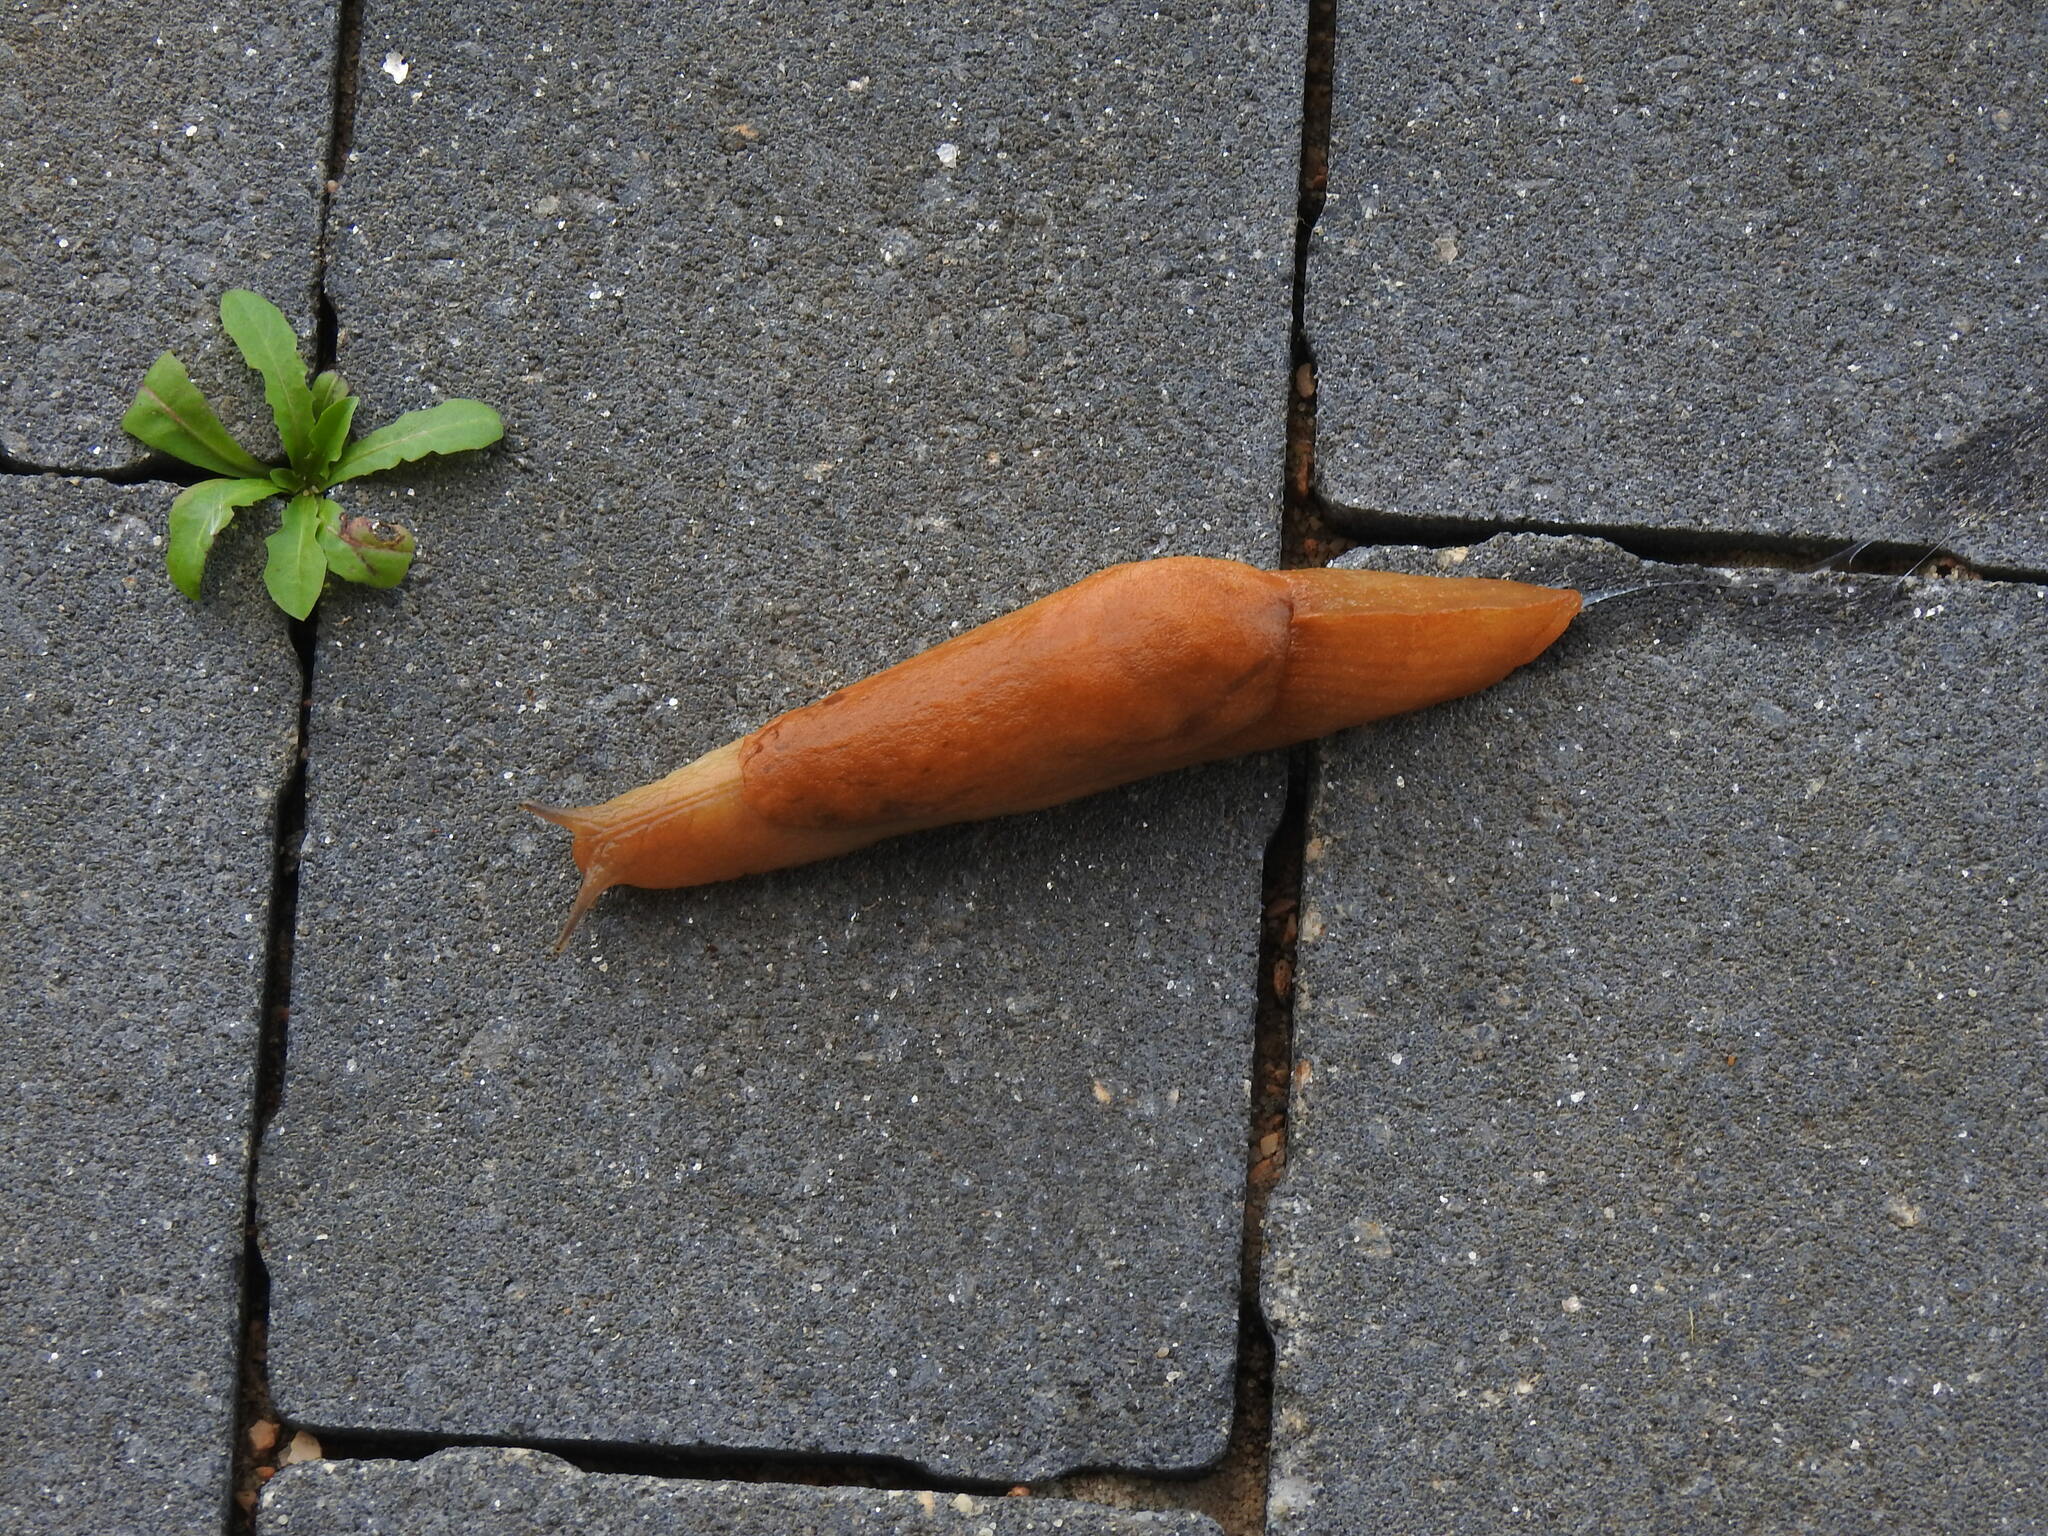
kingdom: Animalia
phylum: Mollusca
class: Gastropoda
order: Stylommatophora
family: Parmacellidae
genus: Drusia
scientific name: Drusia valenciennii
